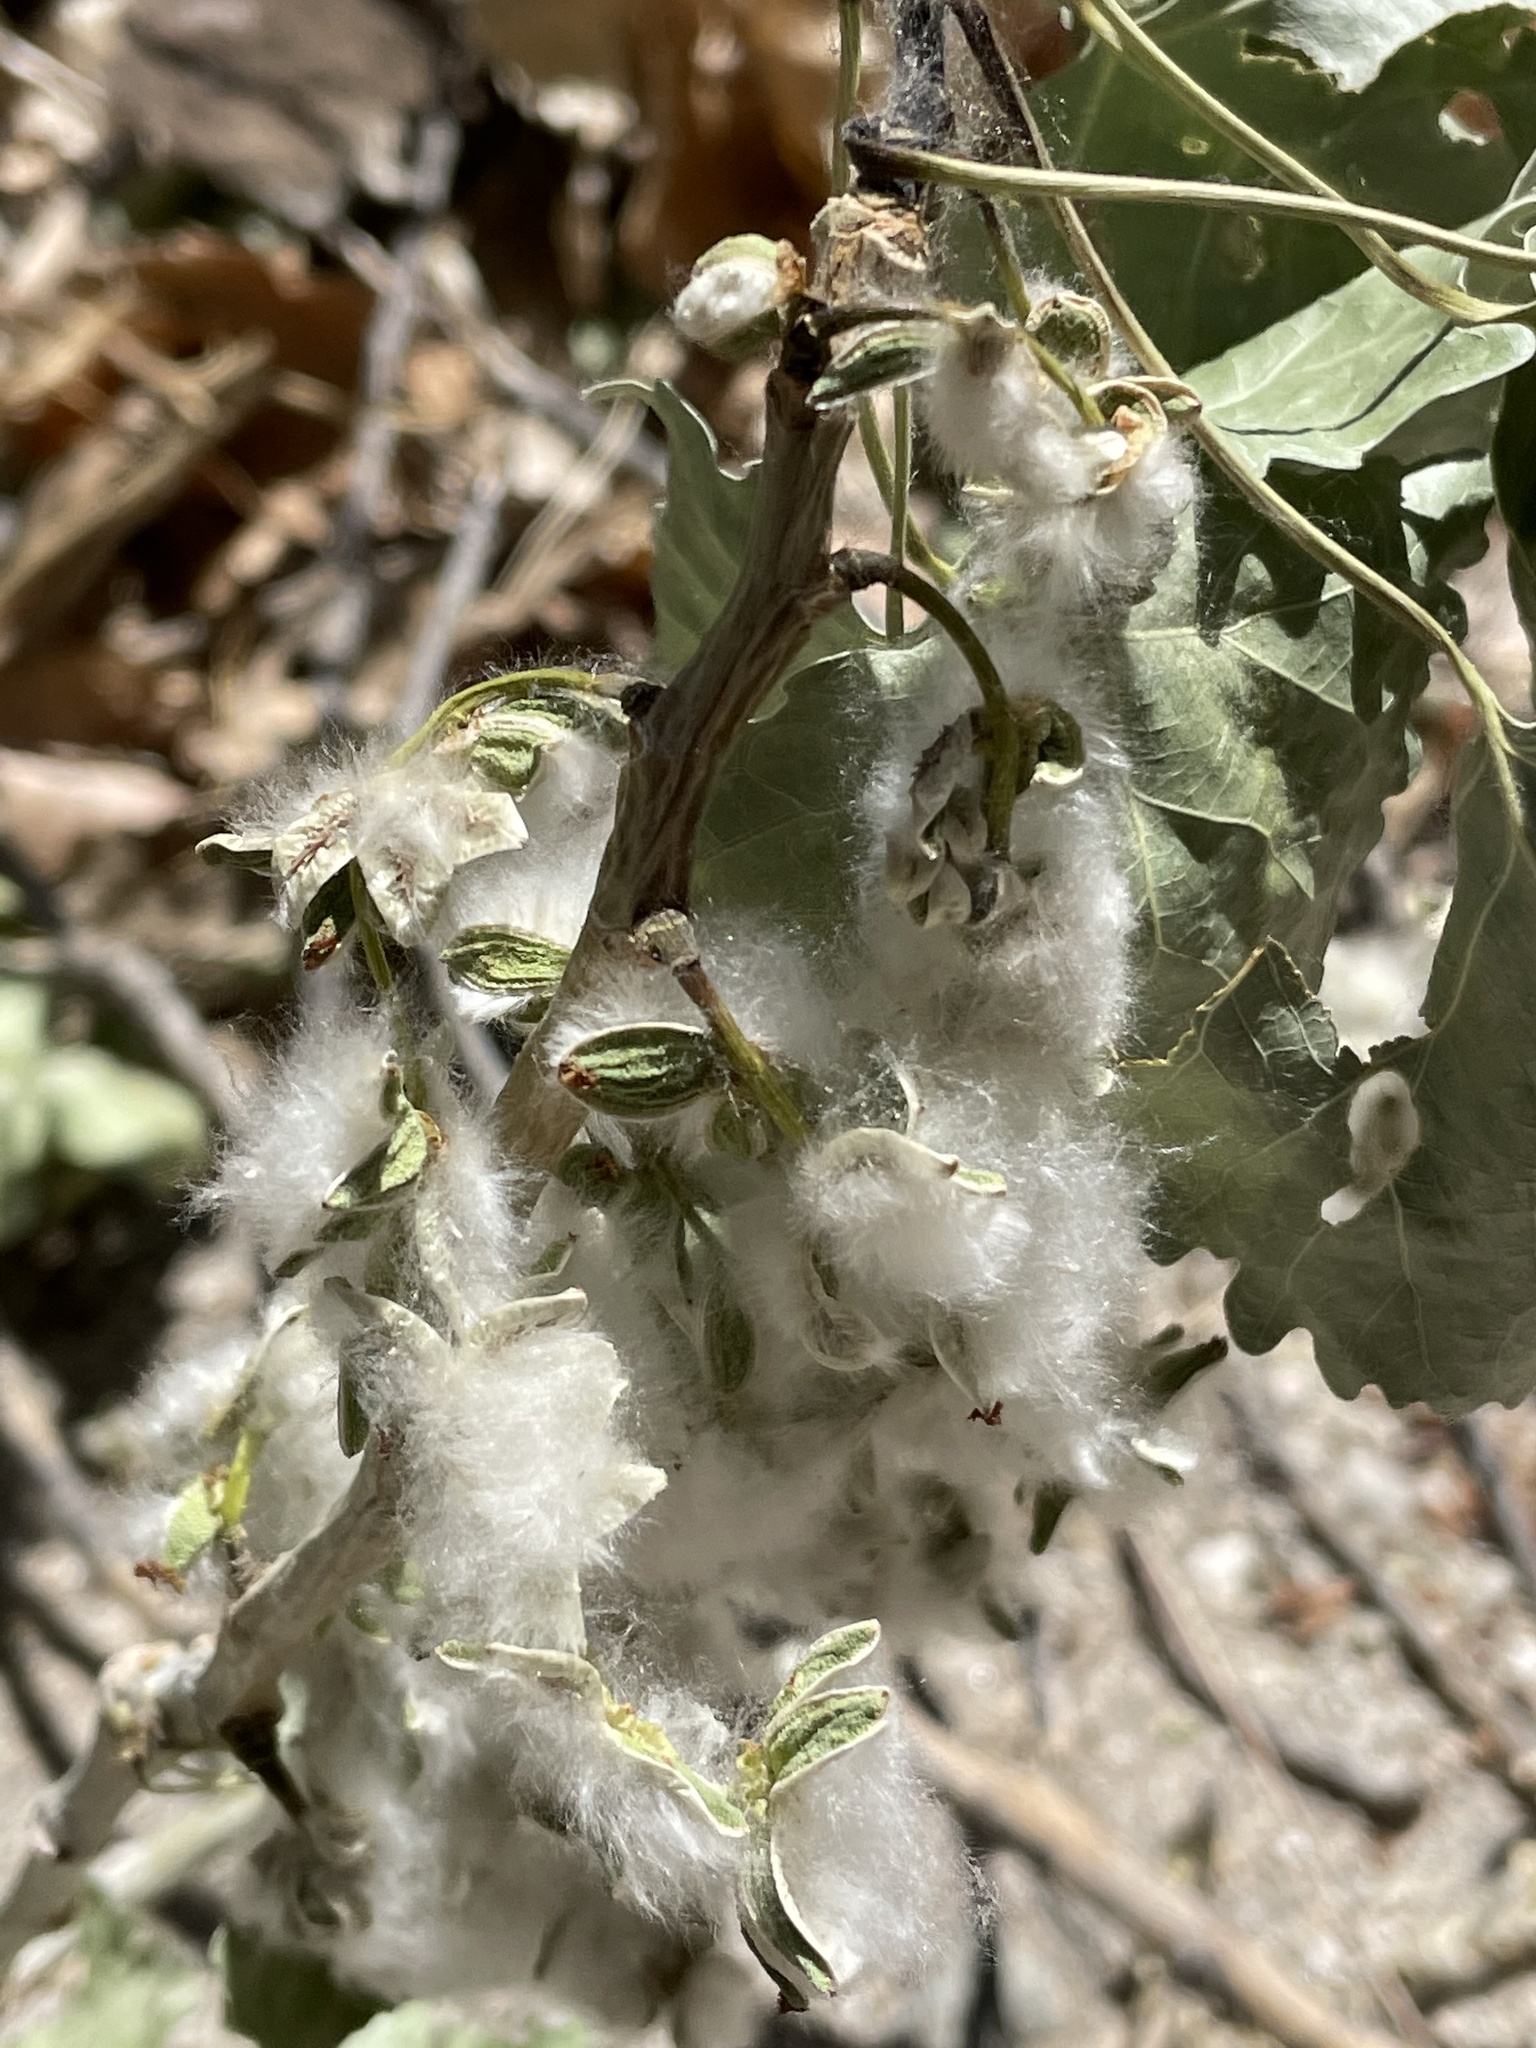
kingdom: Plantae
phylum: Tracheophyta
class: Magnoliopsida
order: Malpighiales
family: Salicaceae
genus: Populus
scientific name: Populus fremontii
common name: Fremont's cottonwood
